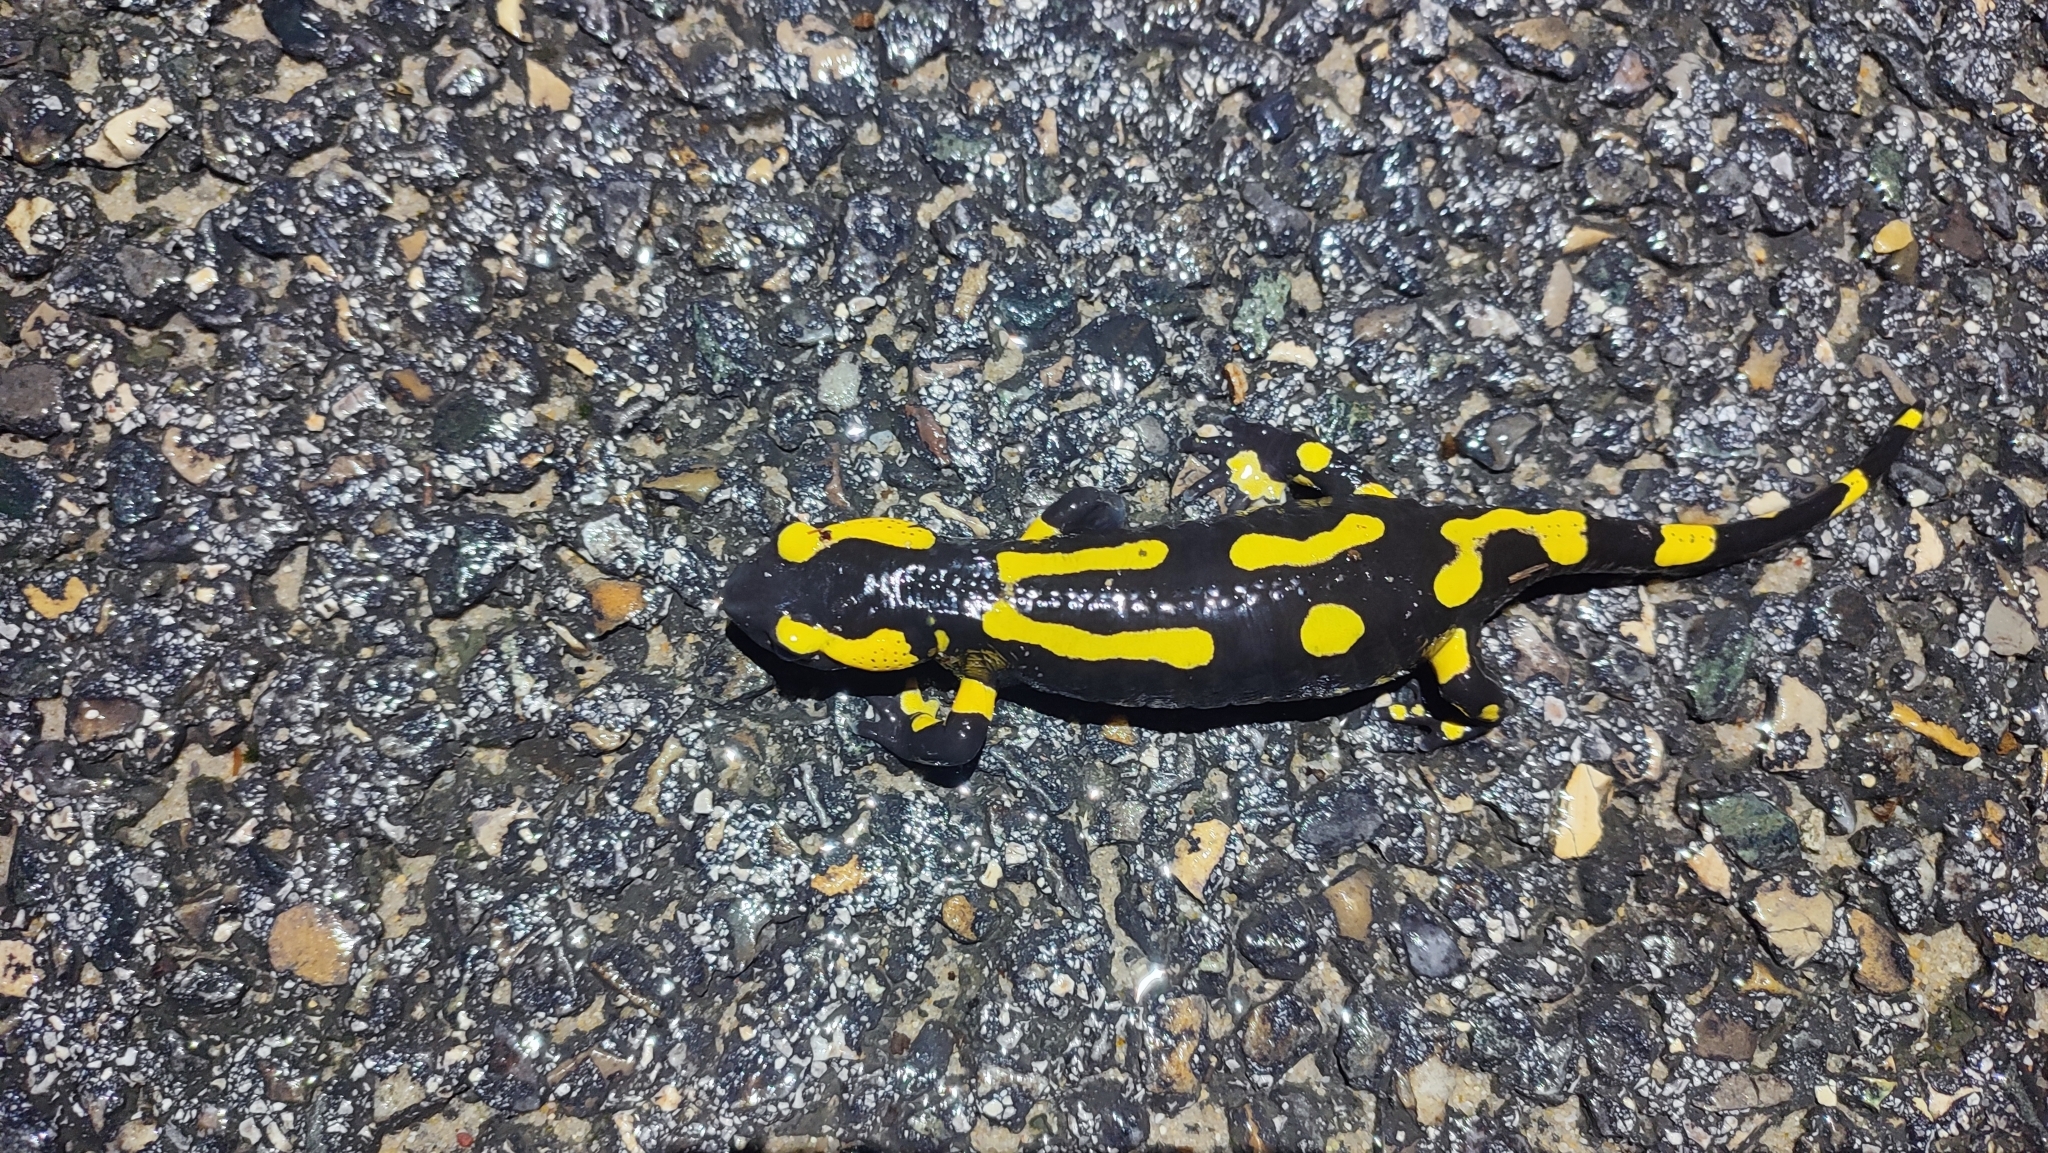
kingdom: Animalia
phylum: Chordata
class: Amphibia
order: Caudata
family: Salamandridae
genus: Salamandra
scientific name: Salamandra salamandra
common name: Fire salamander
